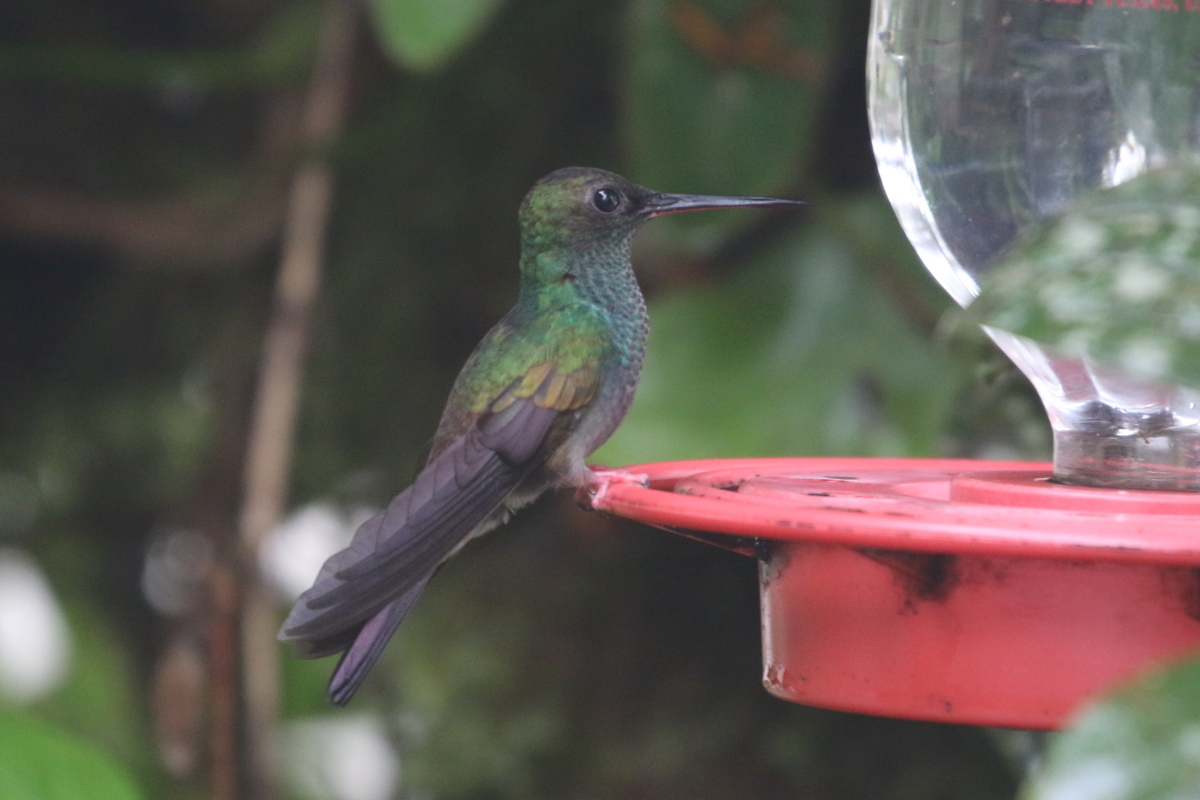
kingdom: Animalia
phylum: Chordata
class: Aves
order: Apodiformes
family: Trochilidae
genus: Chalybura
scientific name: Chalybura urochrysia
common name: Bronze-tailed plumeleteer
